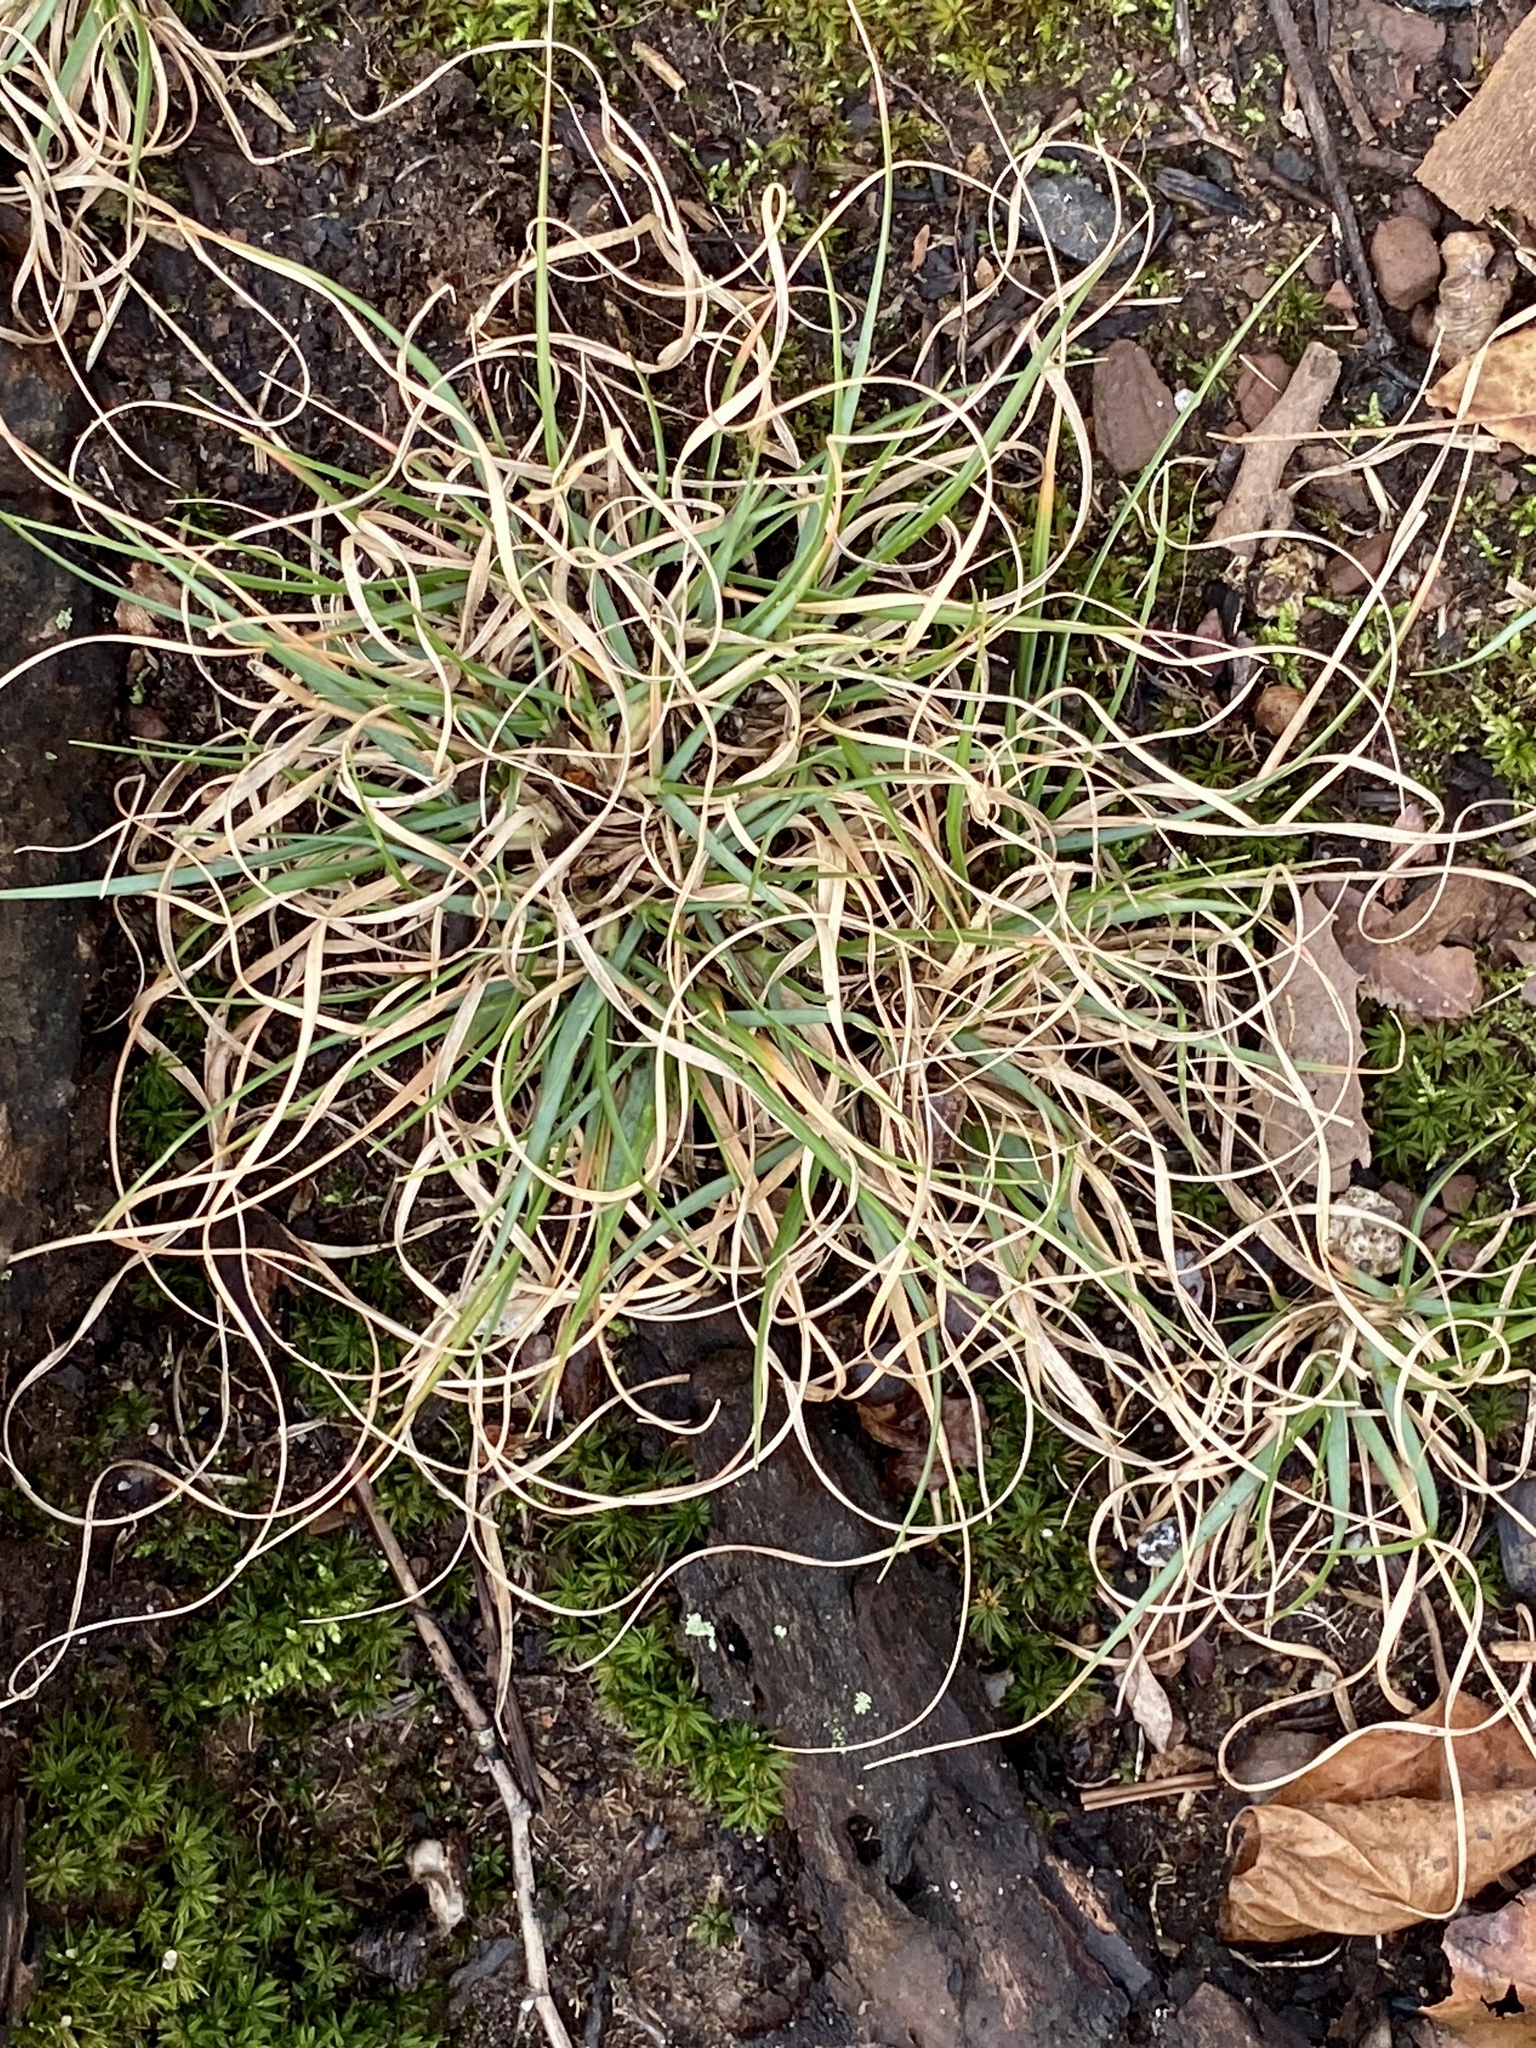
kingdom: Plantae
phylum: Tracheophyta
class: Liliopsida
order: Poales
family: Poaceae
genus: Danthonia
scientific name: Danthonia spicata
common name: Common wild oatgrass
